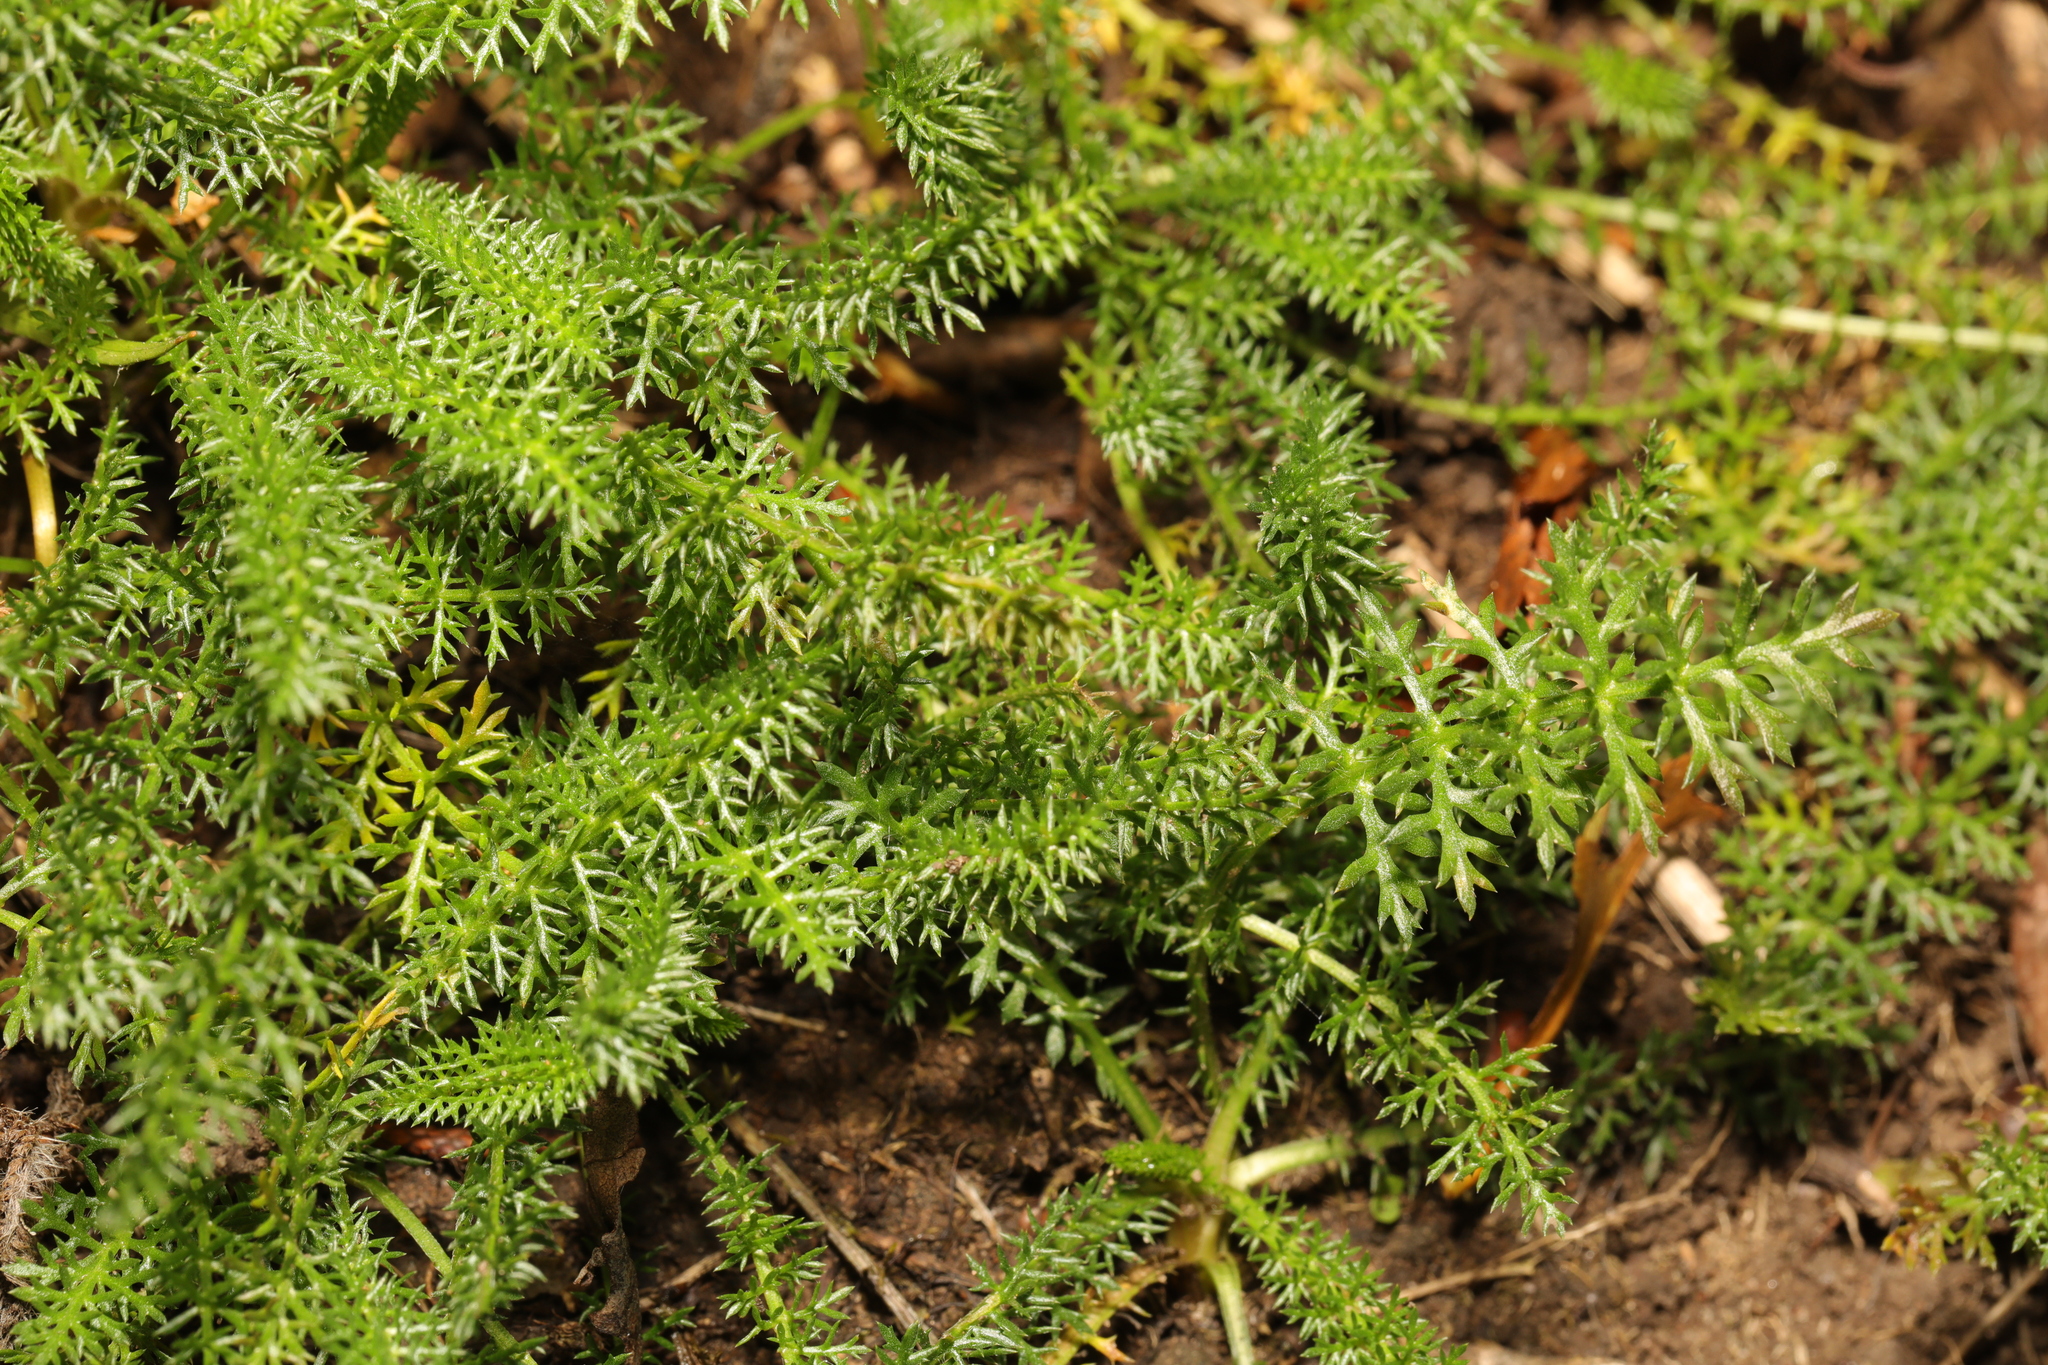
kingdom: Plantae
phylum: Tracheophyta
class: Magnoliopsida
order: Asterales
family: Asteraceae
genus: Achillea
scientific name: Achillea millefolium
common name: Yarrow
